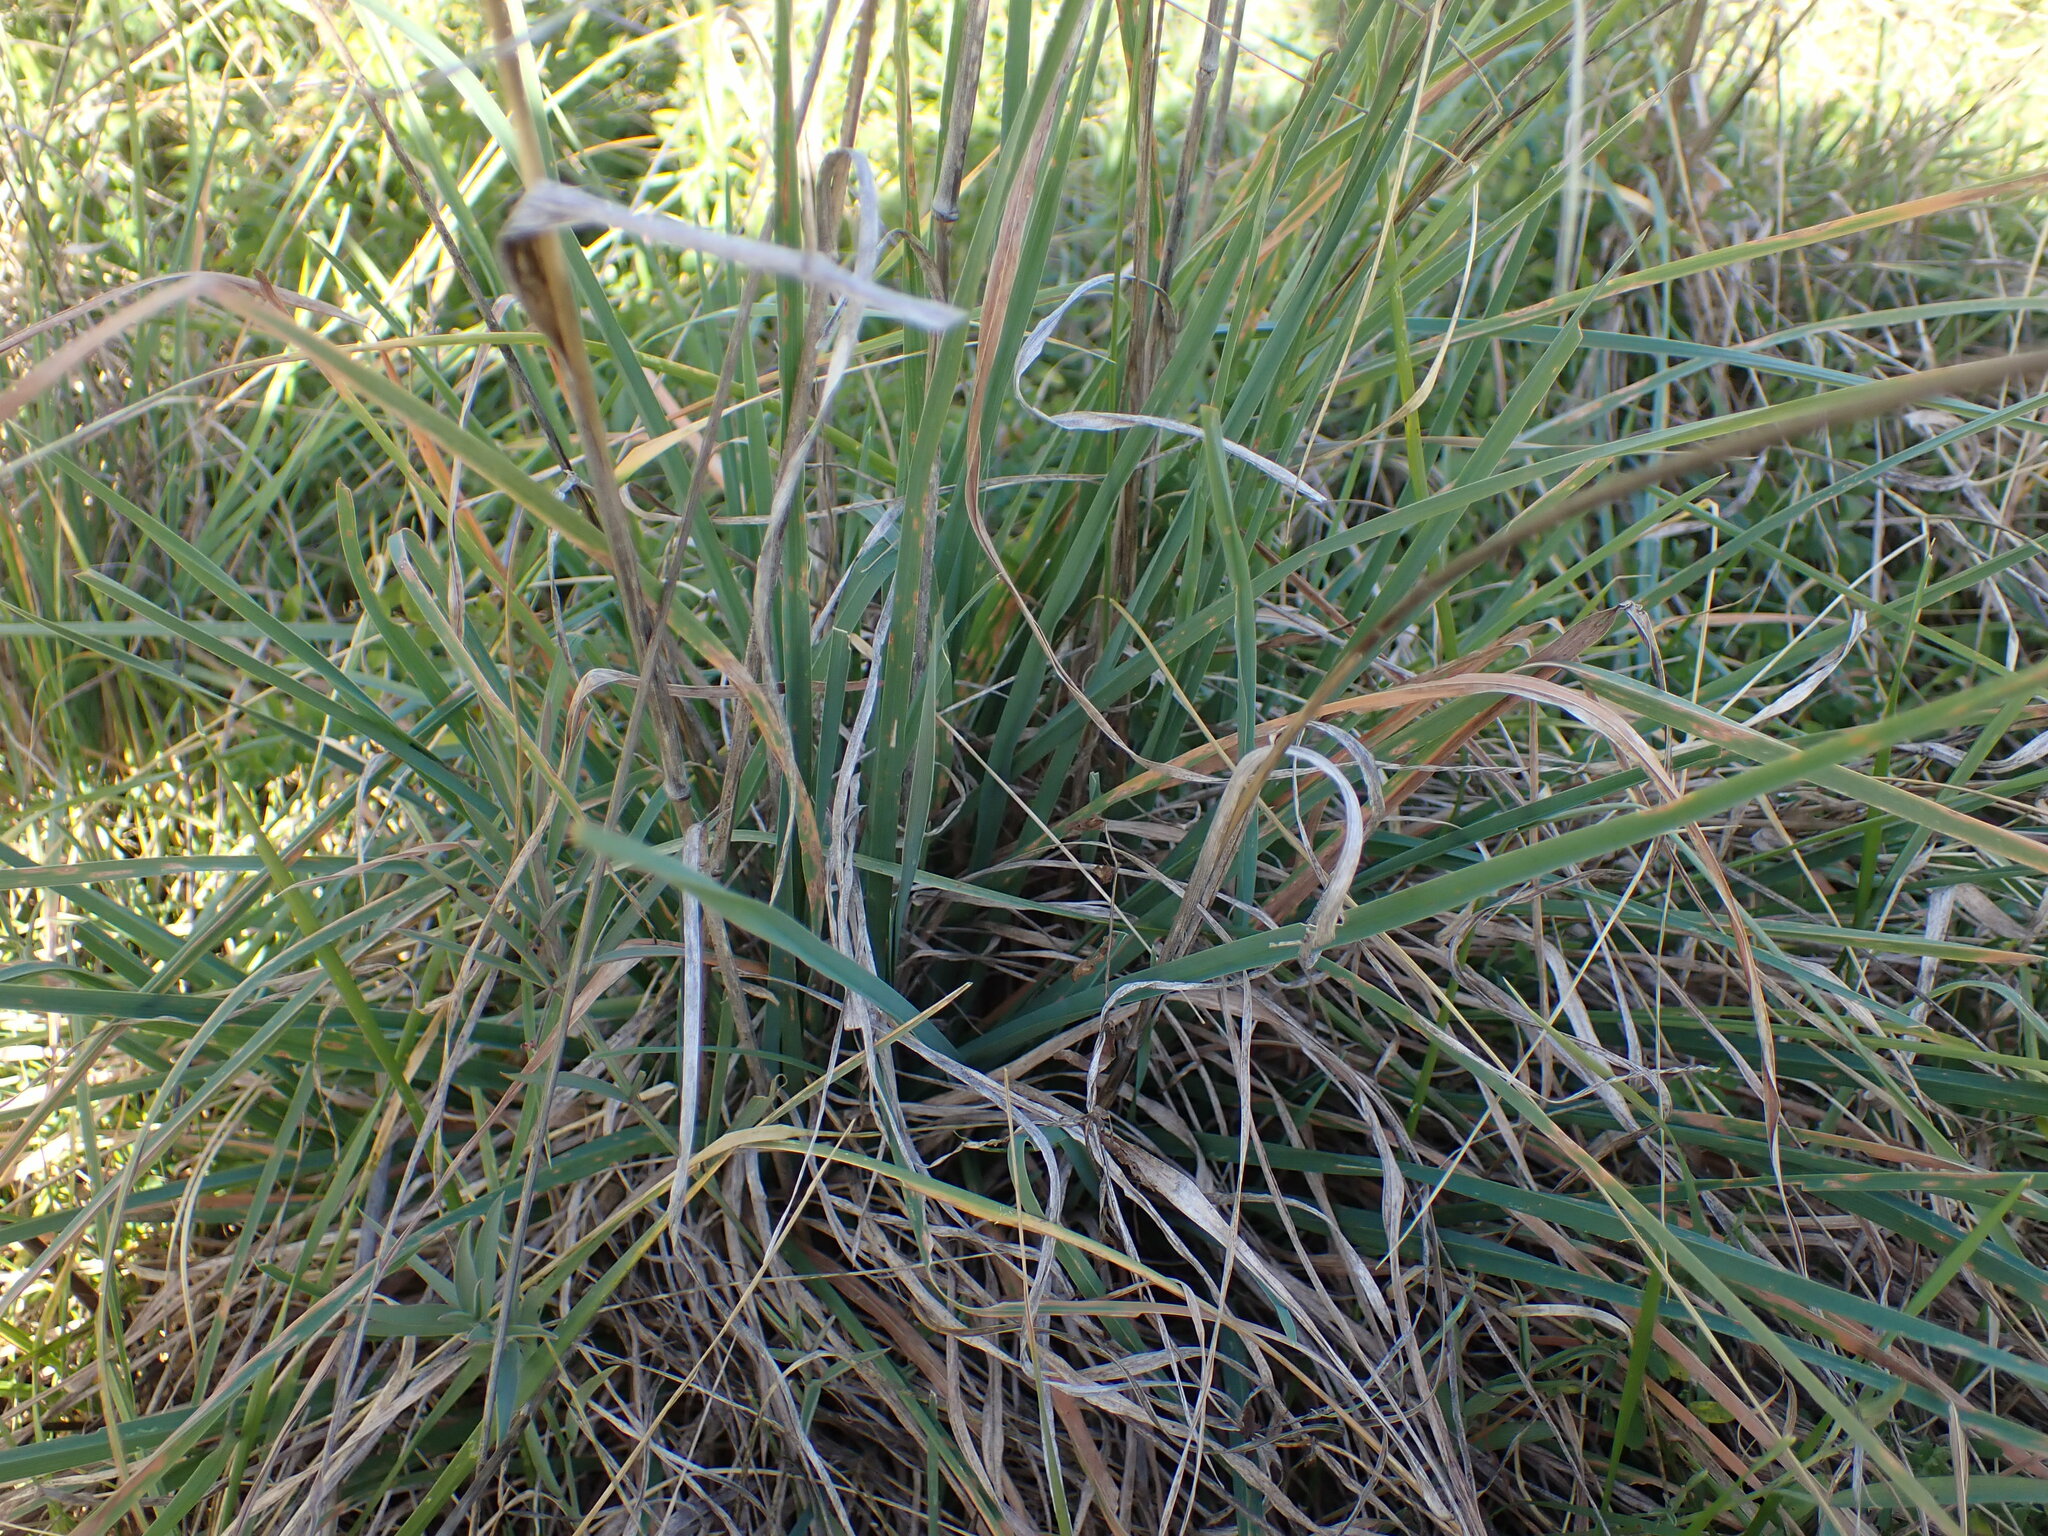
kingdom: Plantae
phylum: Tracheophyta
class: Liliopsida
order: Poales
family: Poaceae
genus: Dactylis
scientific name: Dactylis glomerata
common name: Orchardgrass
